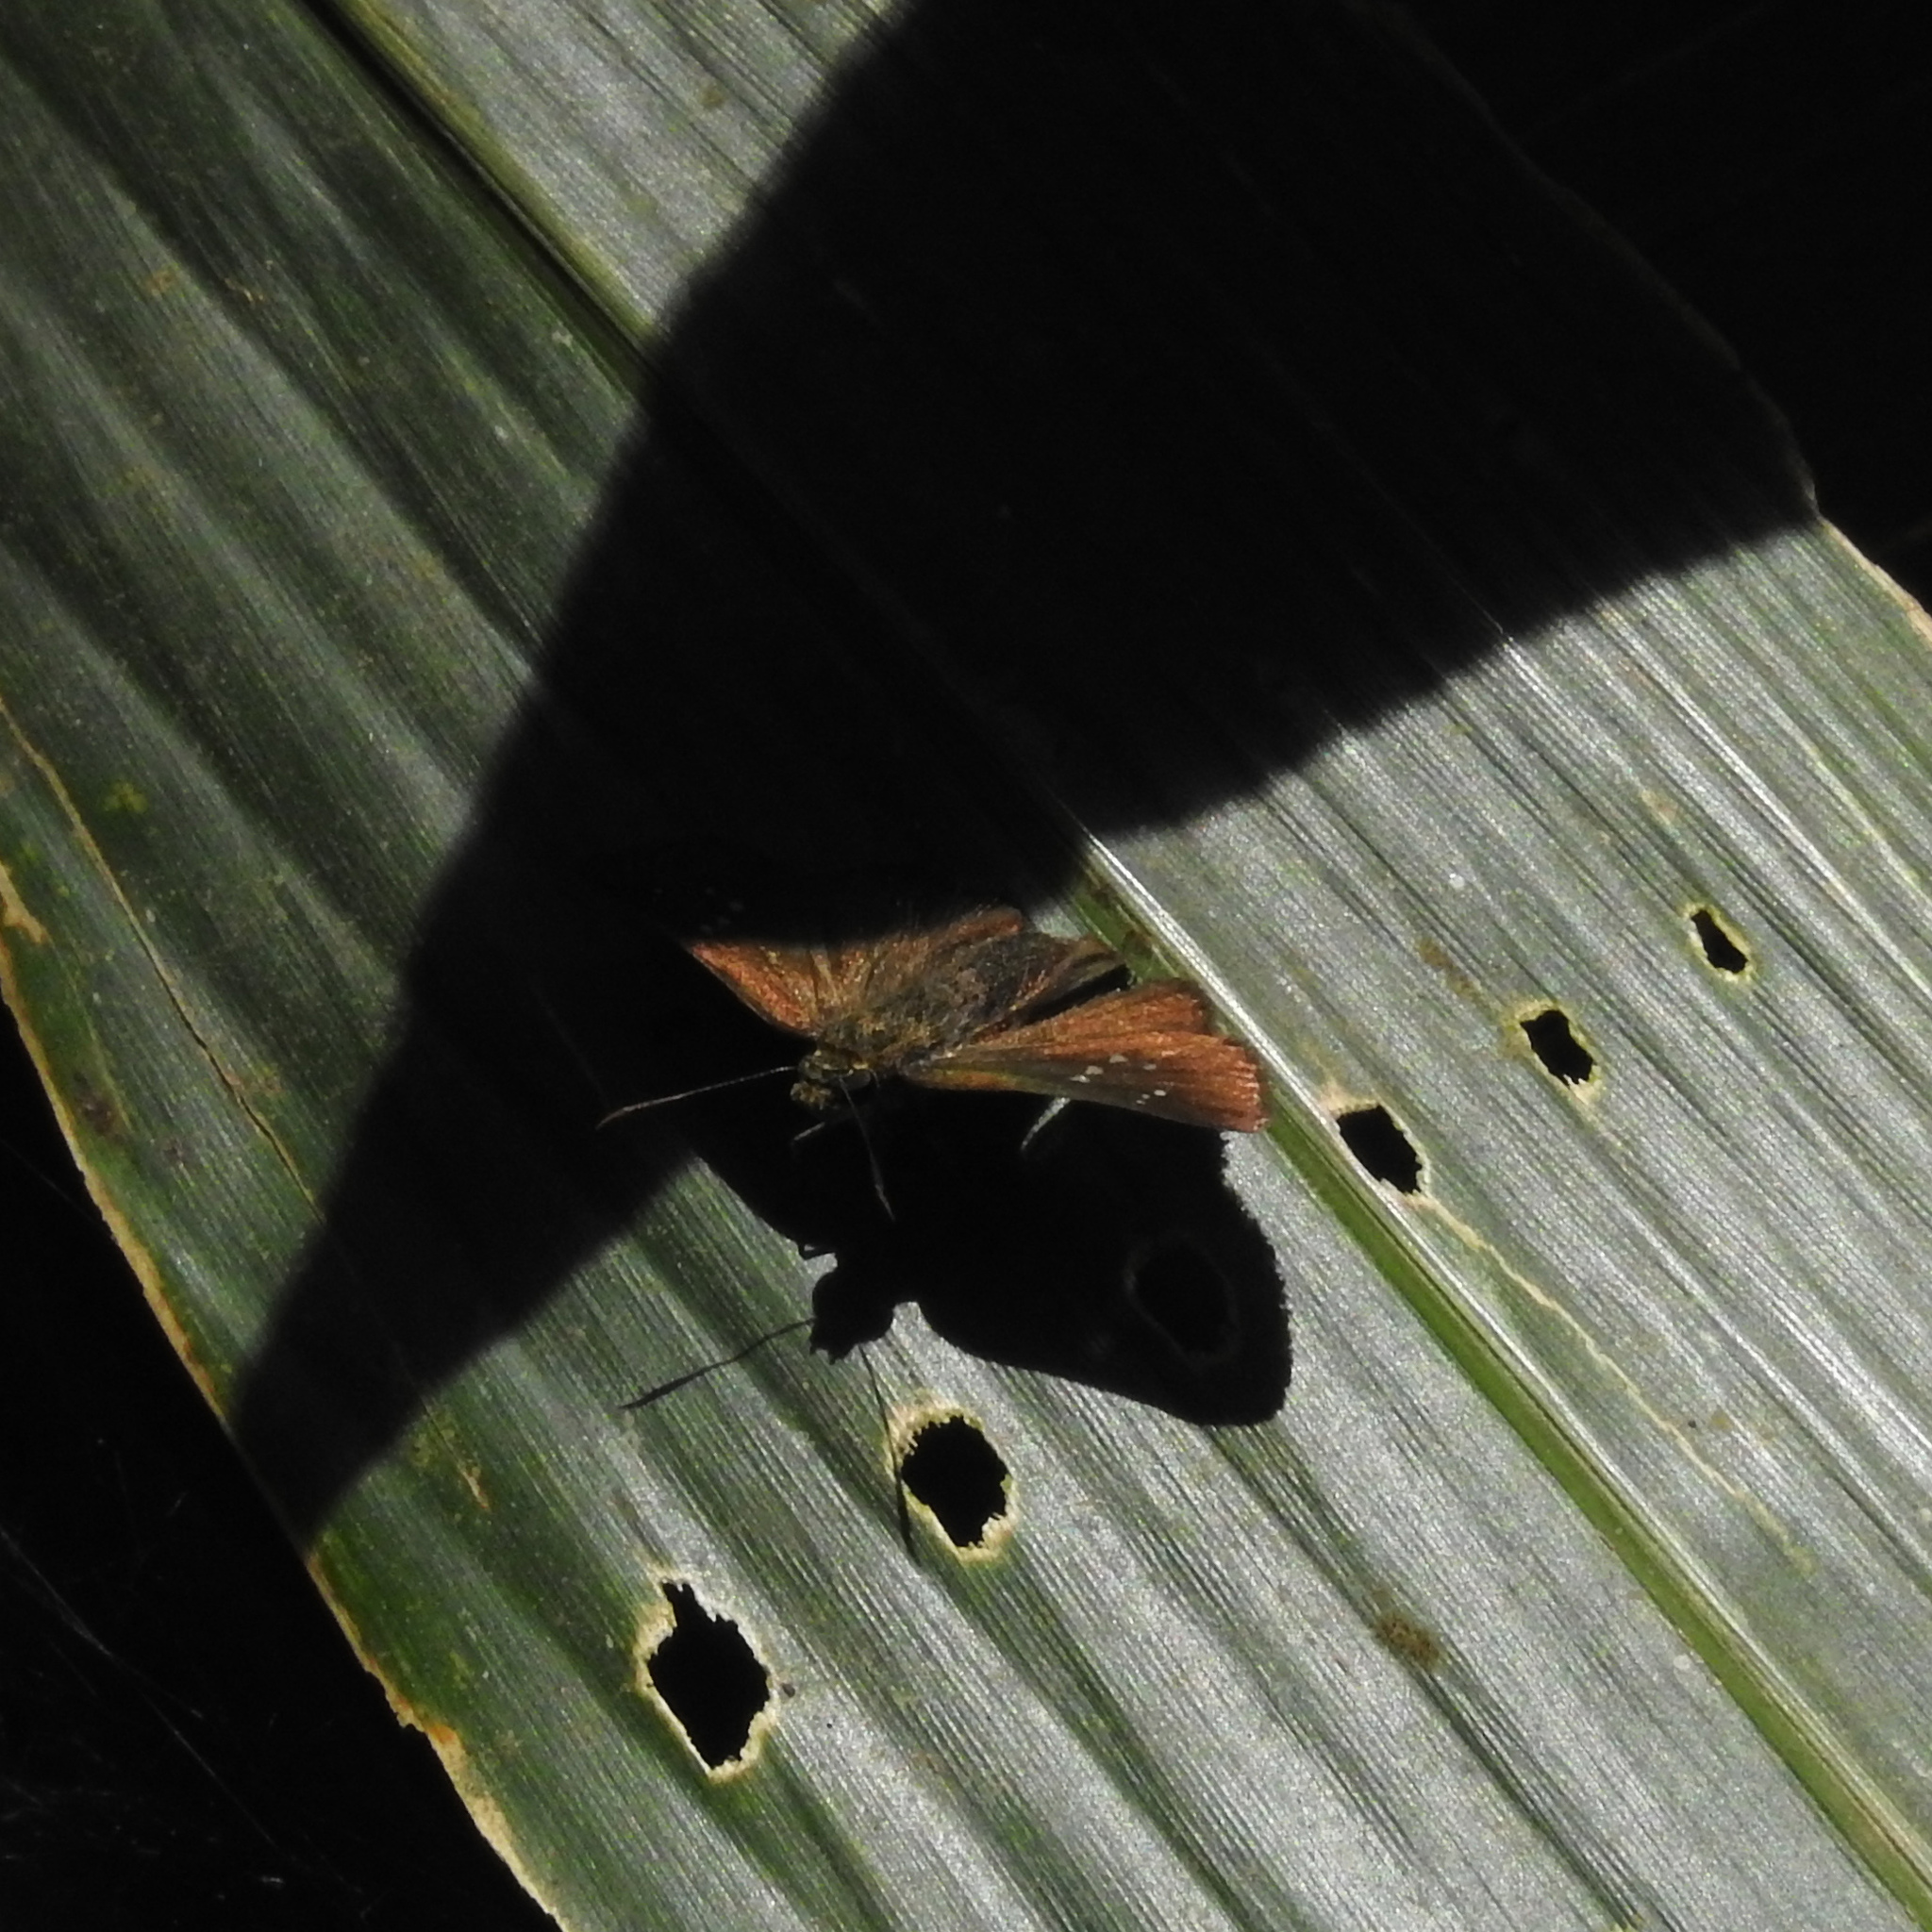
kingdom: Animalia
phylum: Arthropoda
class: Insecta
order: Lepidoptera
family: Hesperiidae
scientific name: Hesperiidae
